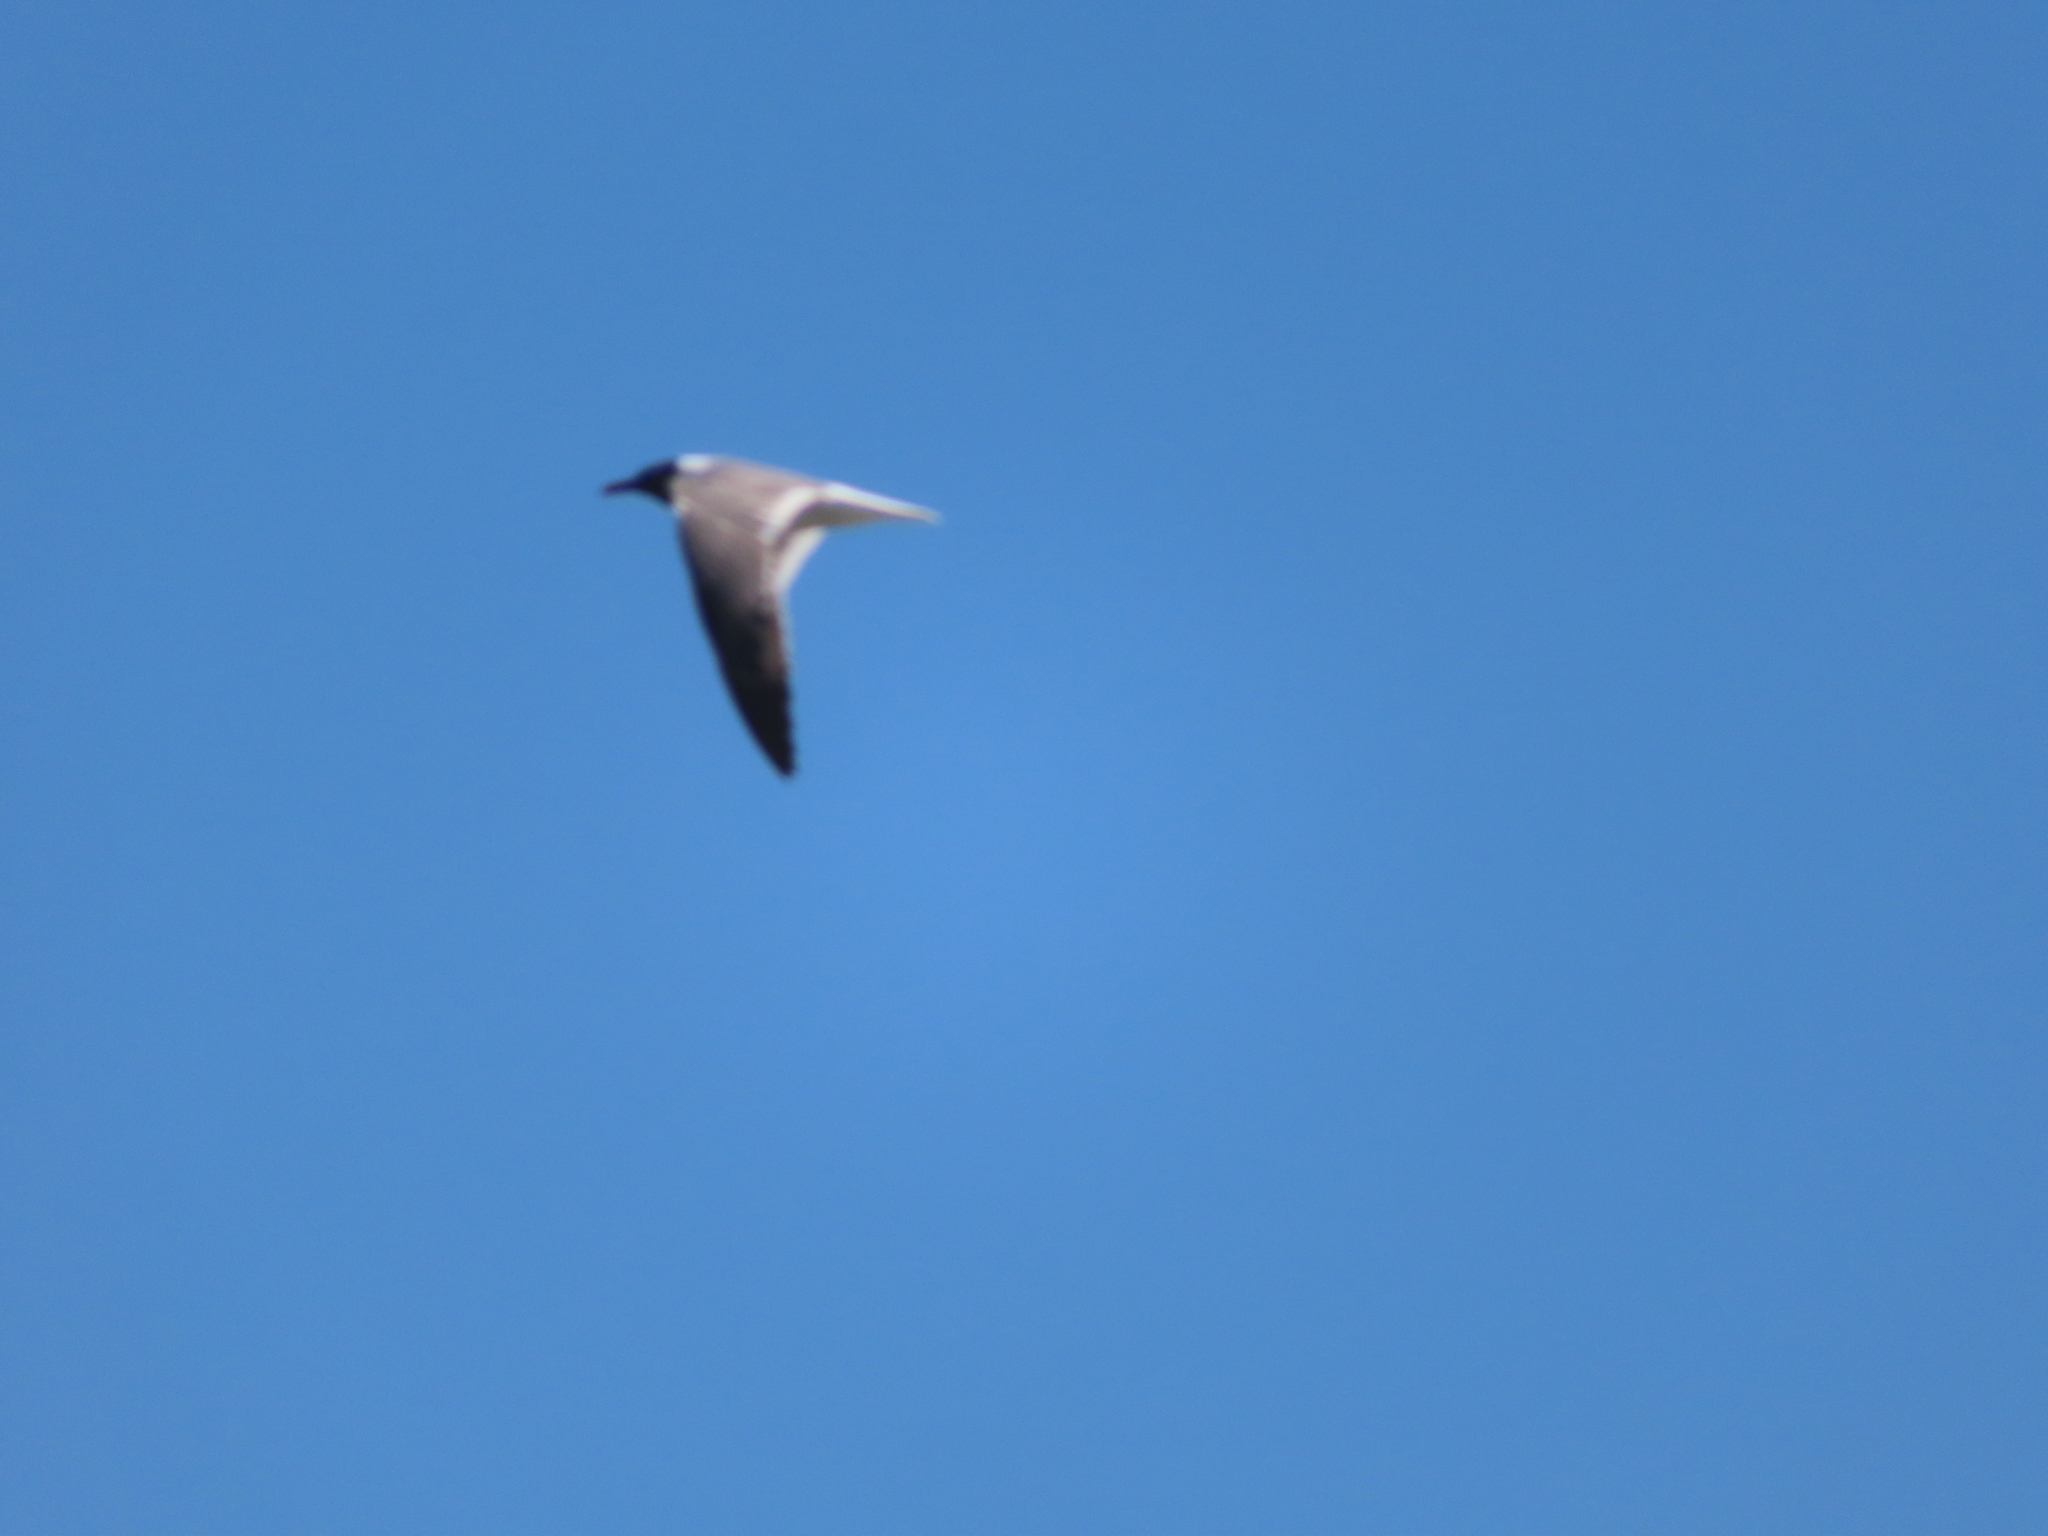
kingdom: Animalia
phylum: Chordata
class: Aves
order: Charadriiformes
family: Laridae
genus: Leucophaeus
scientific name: Leucophaeus atricilla
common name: Laughing gull
